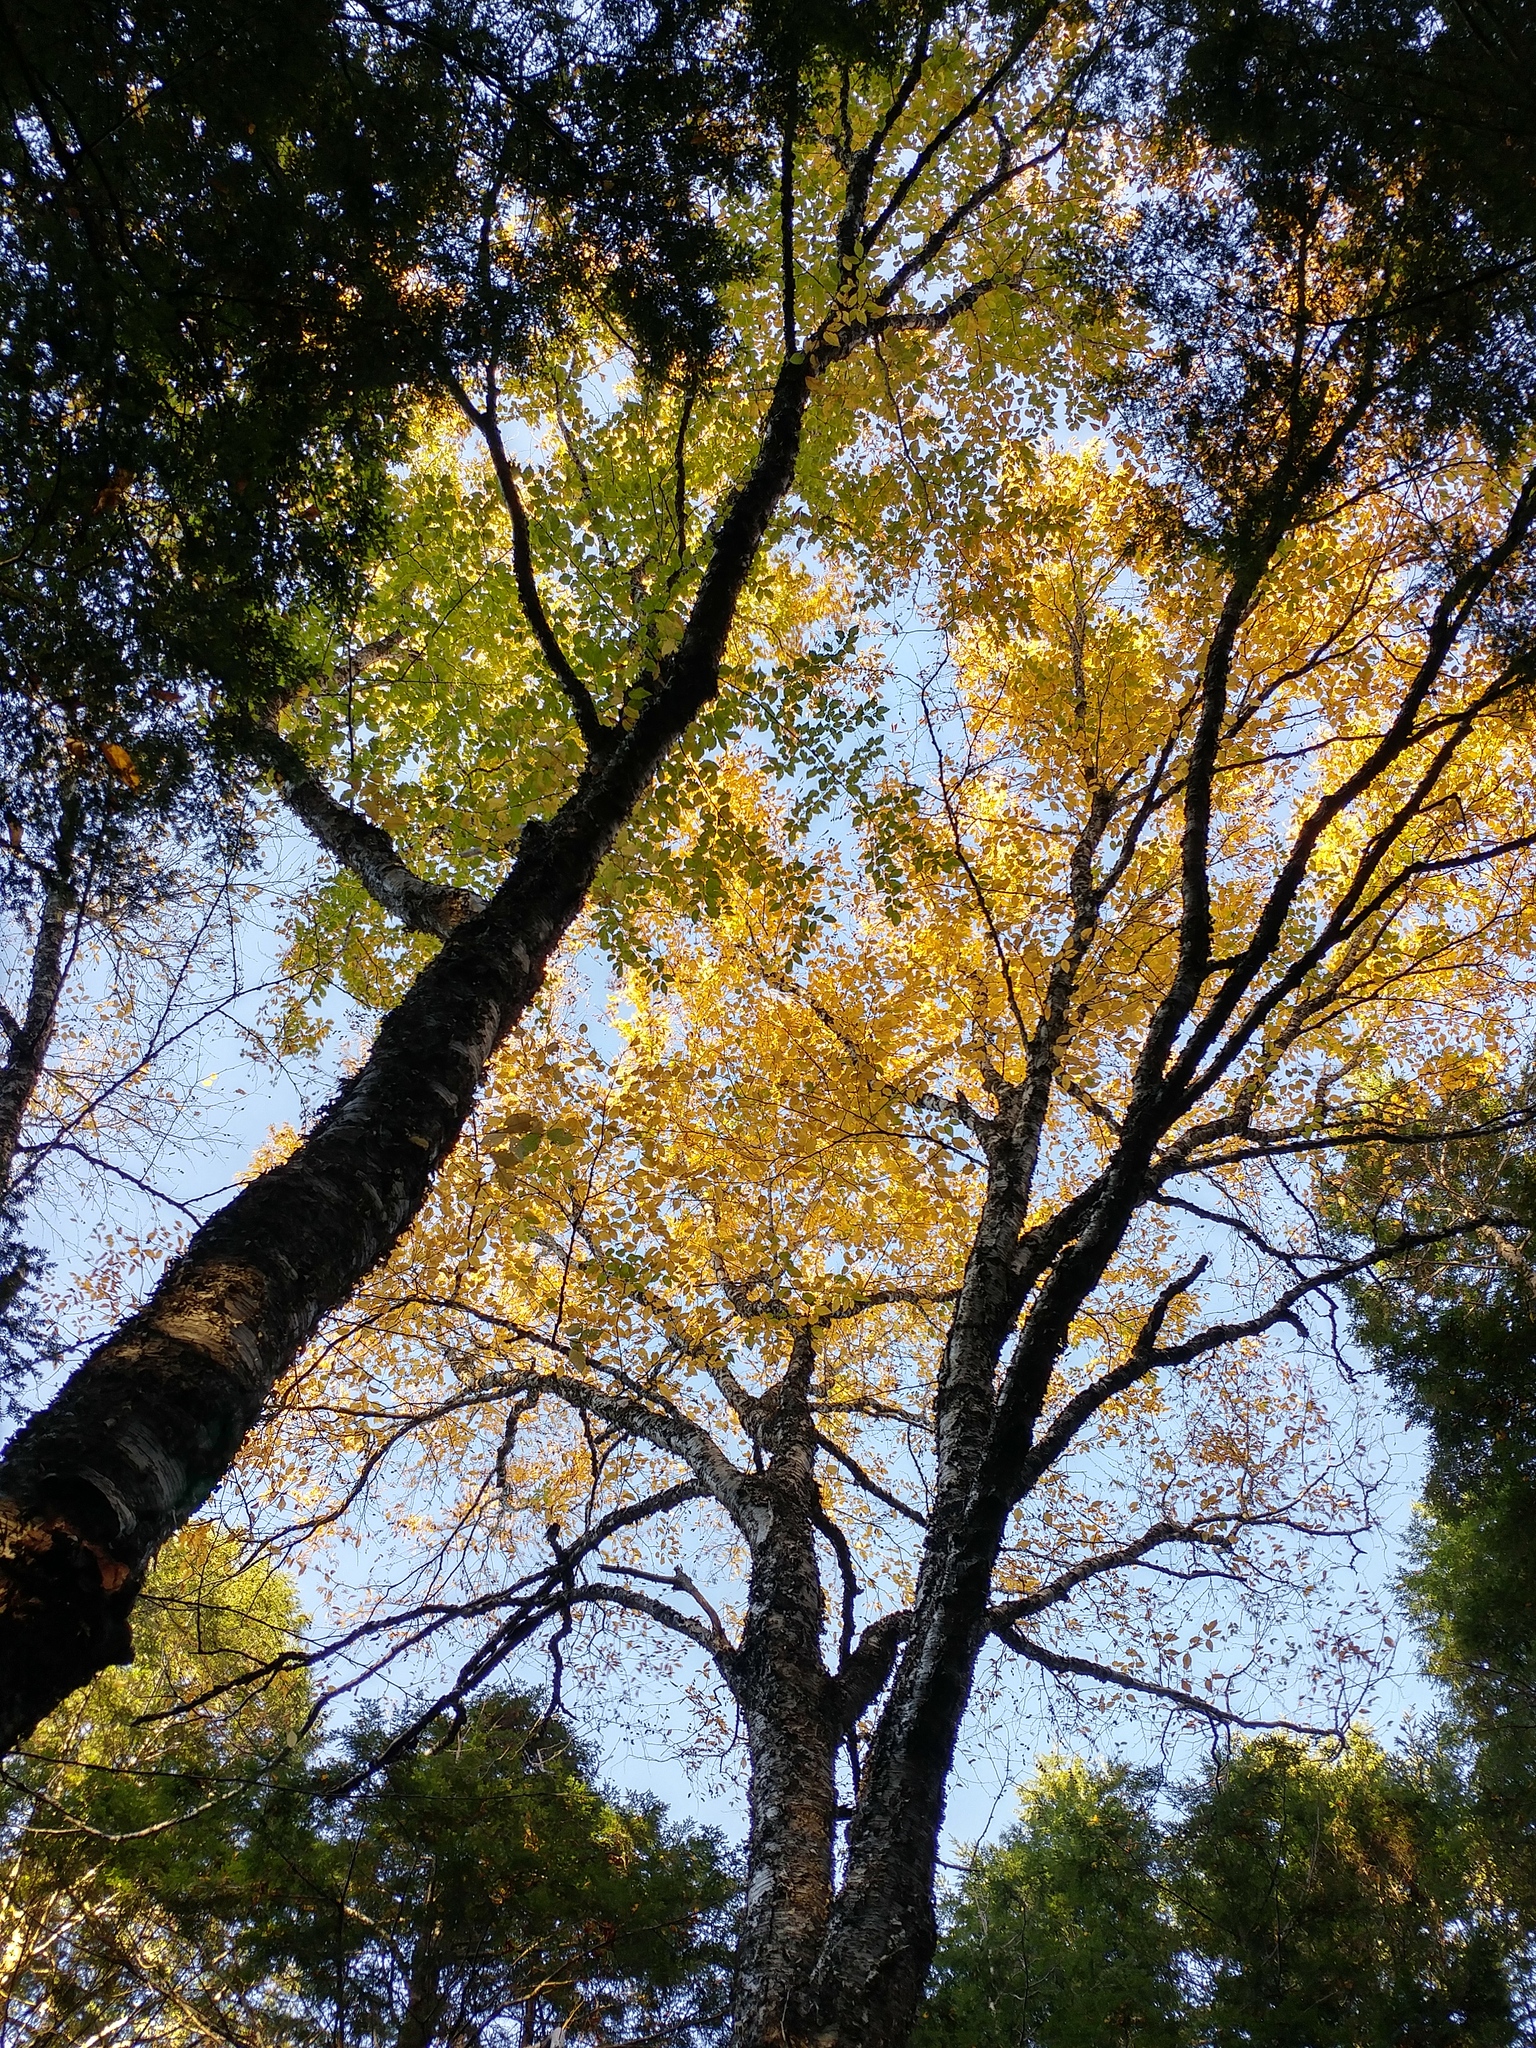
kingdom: Plantae
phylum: Tracheophyta
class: Magnoliopsida
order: Fagales
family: Betulaceae
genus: Betula
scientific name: Betula alleghaniensis
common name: Yellow birch
